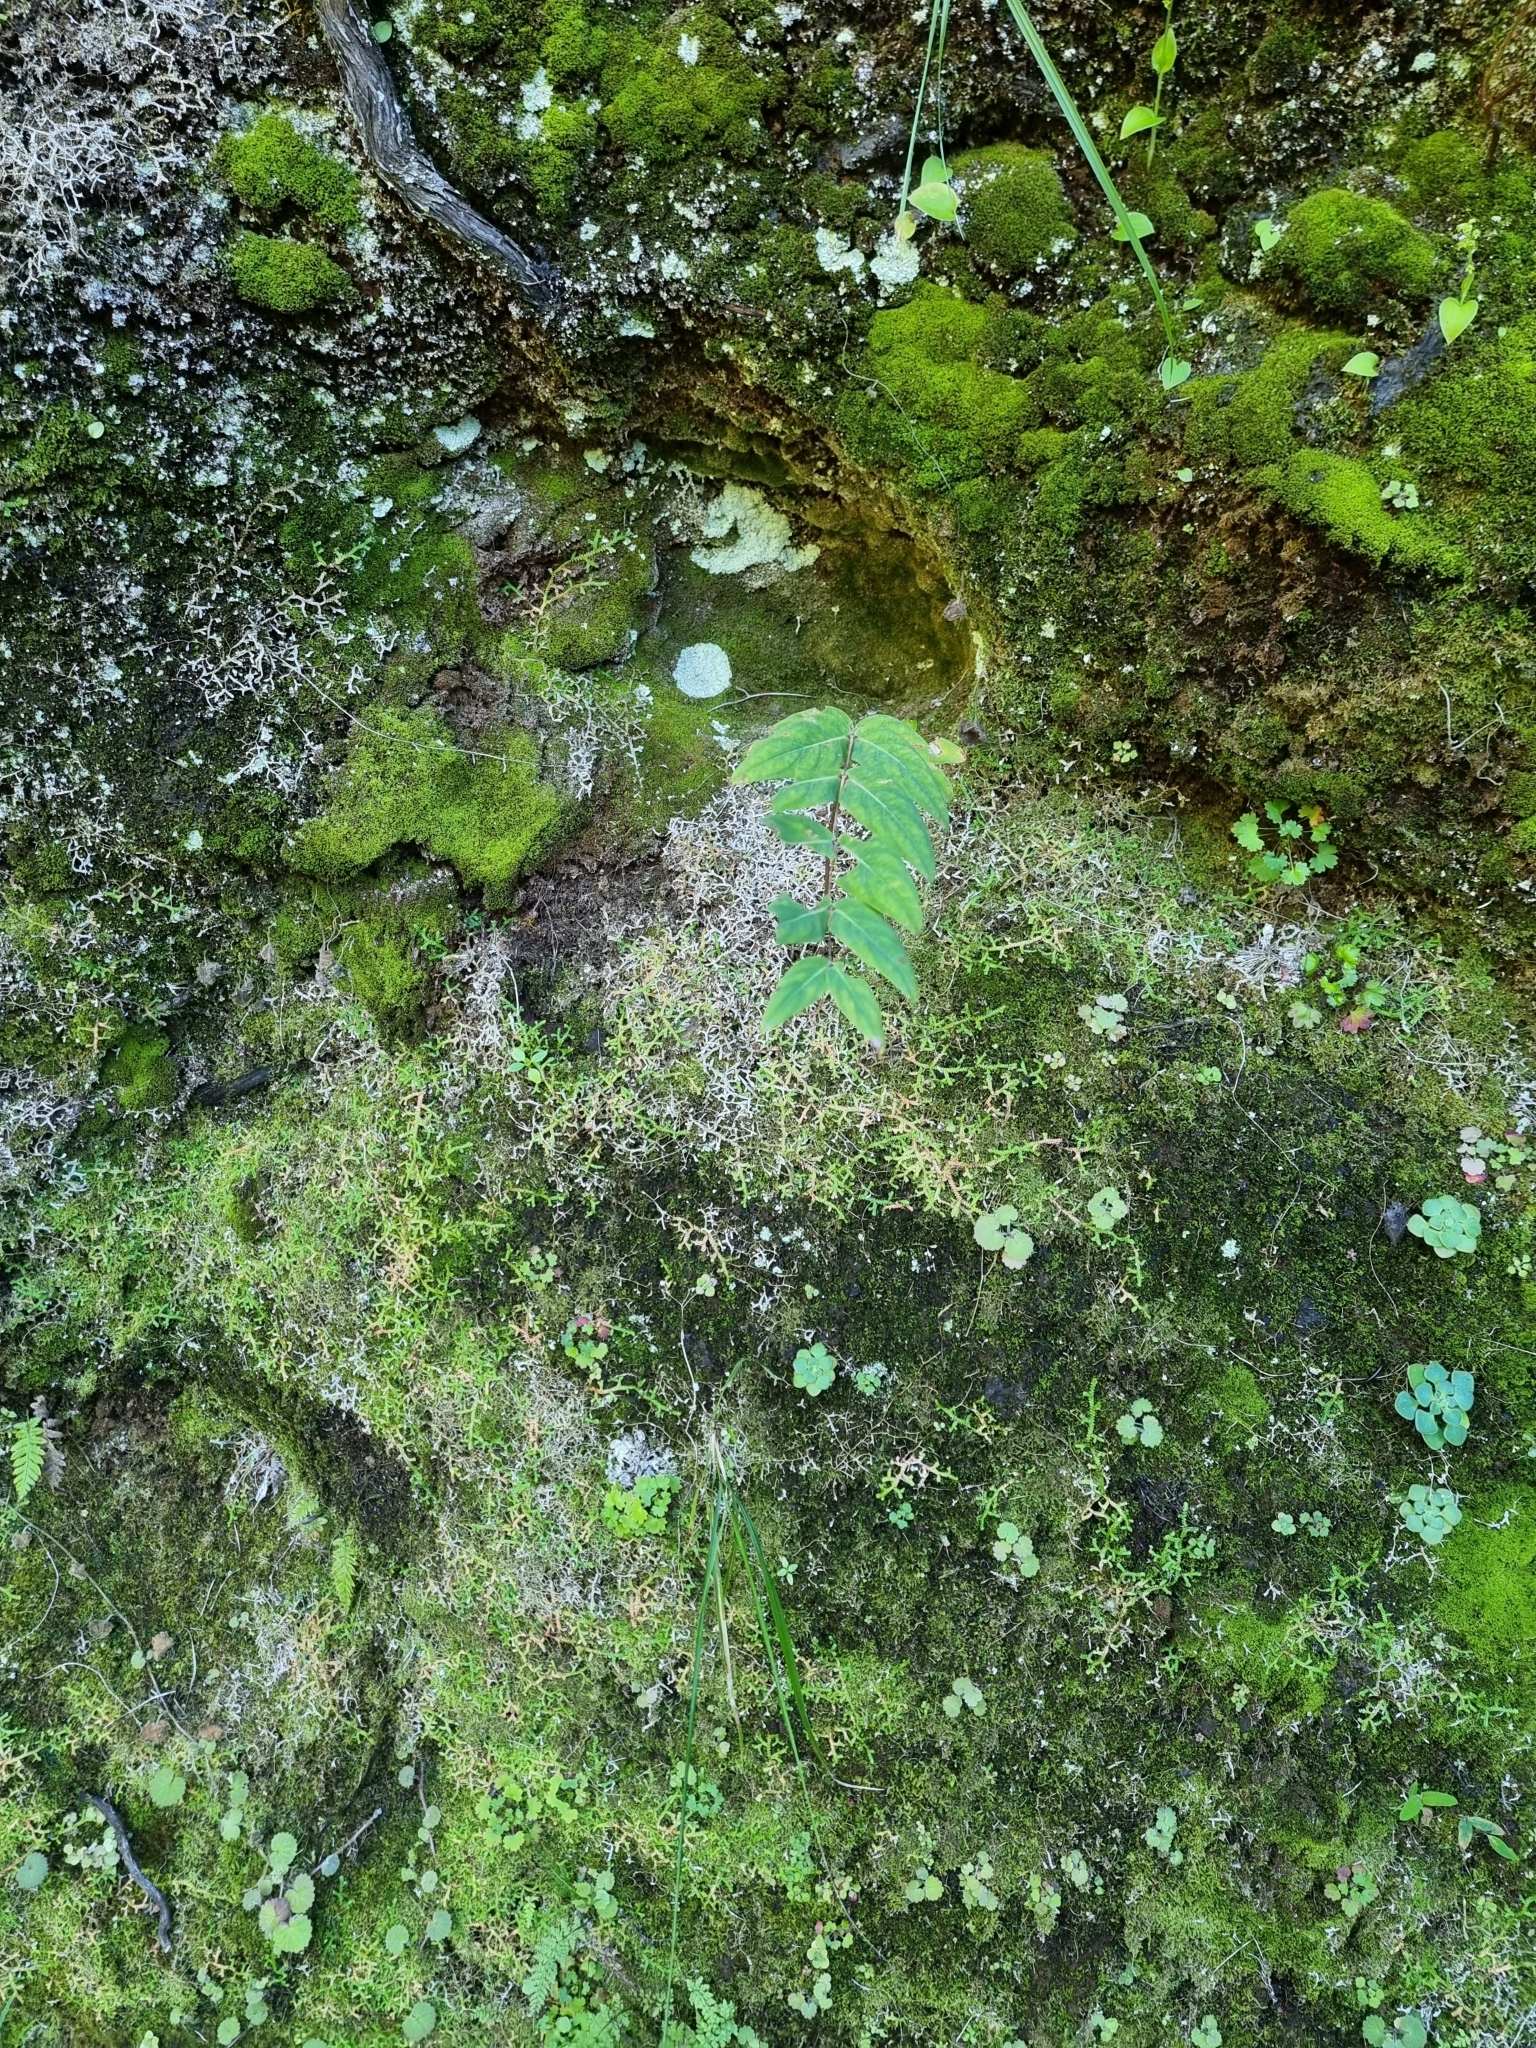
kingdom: Plantae
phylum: Tracheophyta
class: Magnoliopsida
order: Malpighiales
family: Hypericaceae
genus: Hypericum
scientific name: Hypericum grandifolium
